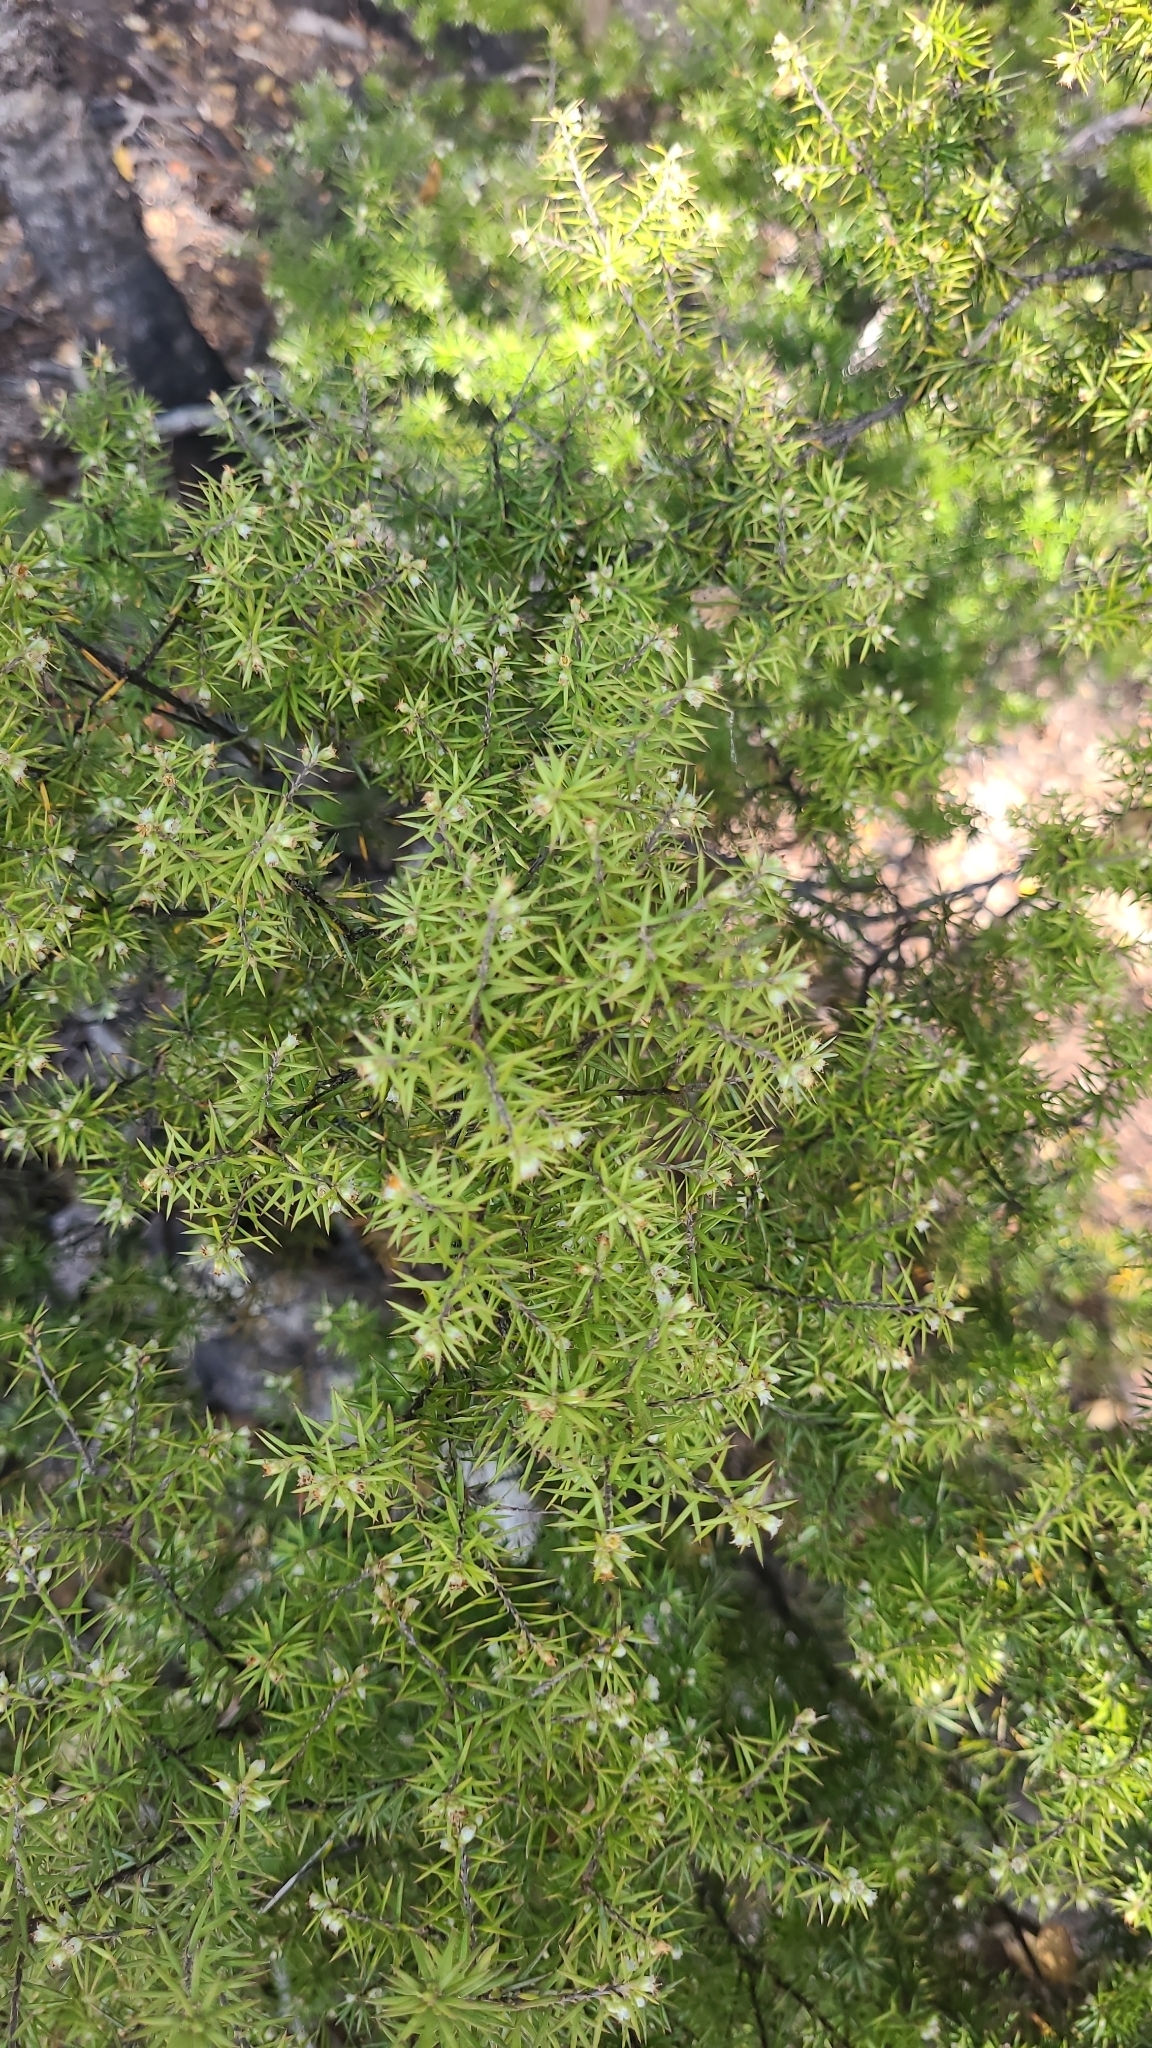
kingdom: Plantae
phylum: Tracheophyta
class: Magnoliopsida
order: Ericales
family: Ericaceae
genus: Leptecophylla
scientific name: Leptecophylla juniperina
